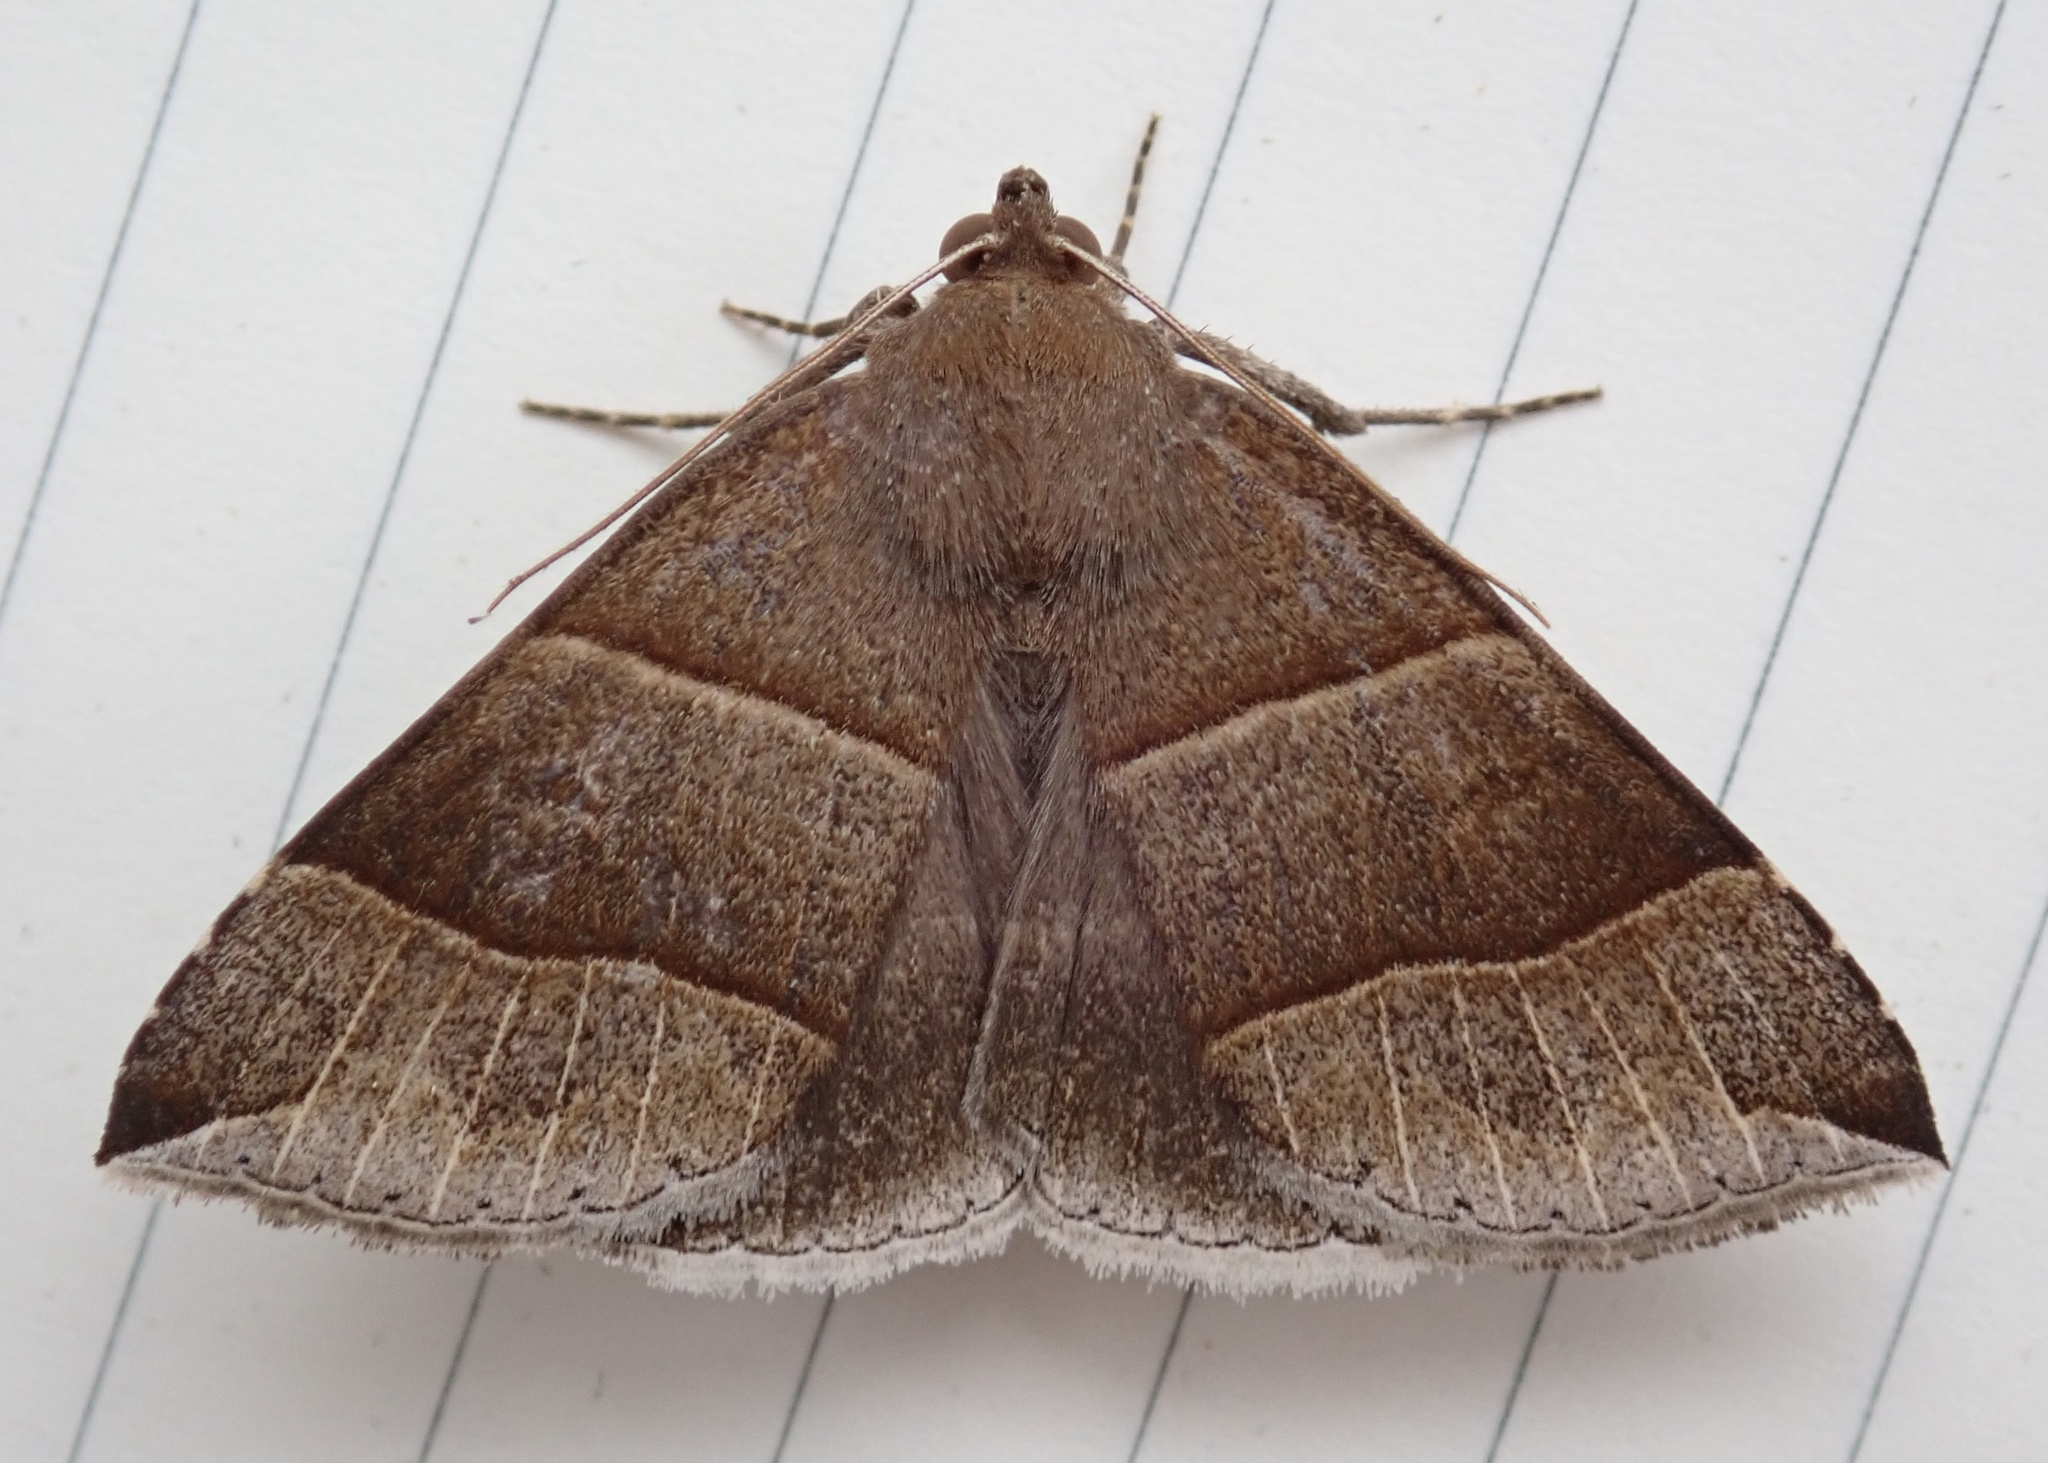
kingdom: Animalia
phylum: Arthropoda
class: Insecta
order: Lepidoptera
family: Erebidae
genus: Parallelia
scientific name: Parallelia bistriaris
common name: Maple looper moth
